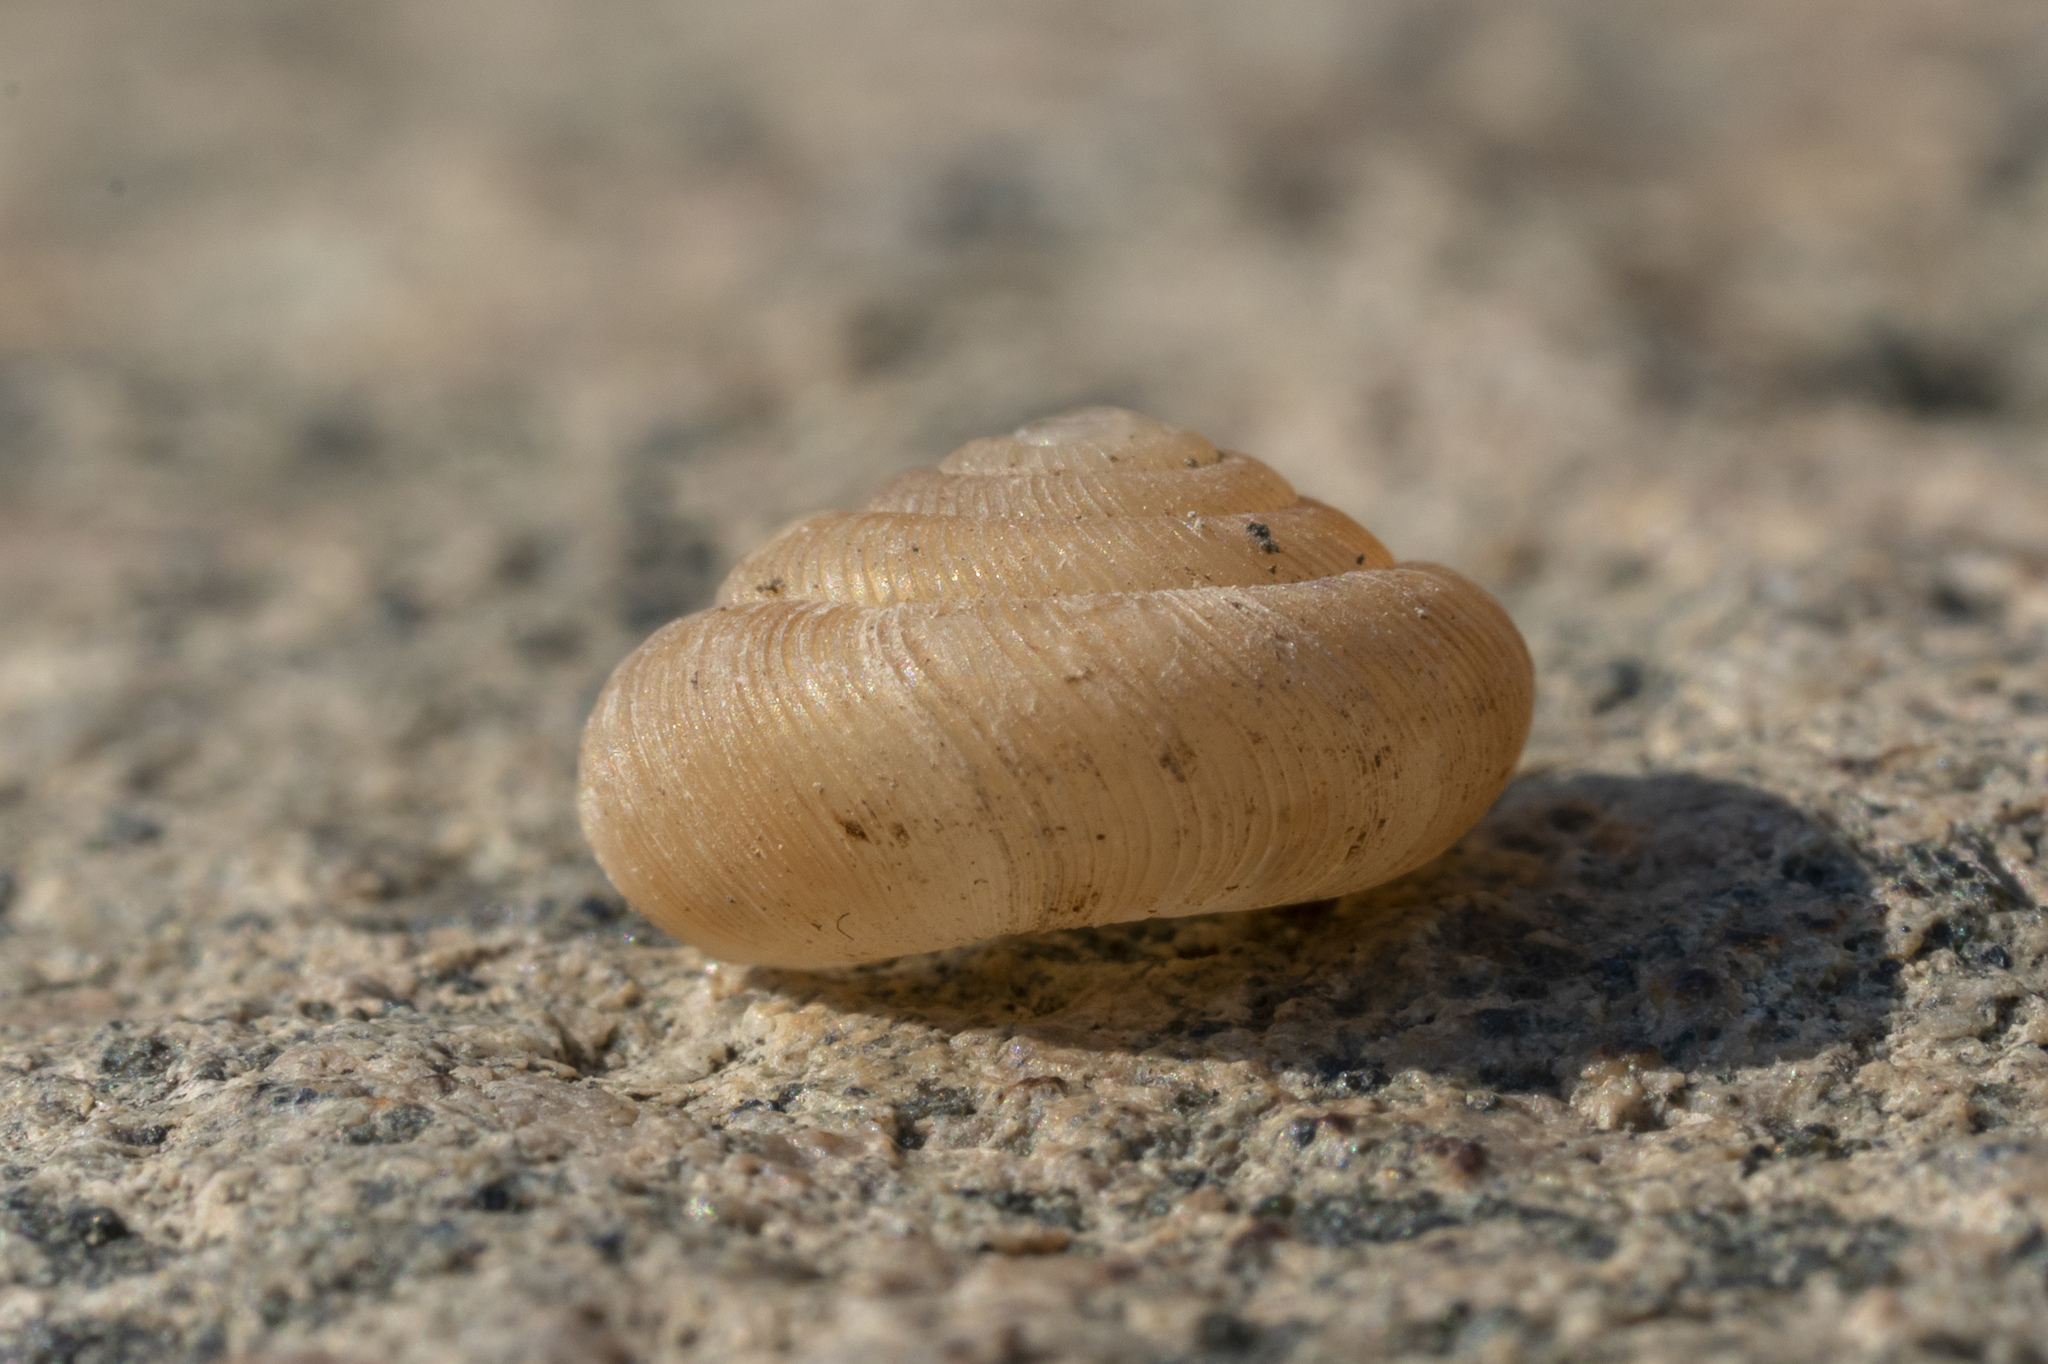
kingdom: Animalia
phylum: Mollusca
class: Gastropoda
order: Stylommatophora
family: Pleurodiscidae
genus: Pleurodiscus
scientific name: Pleurodiscus balmei
